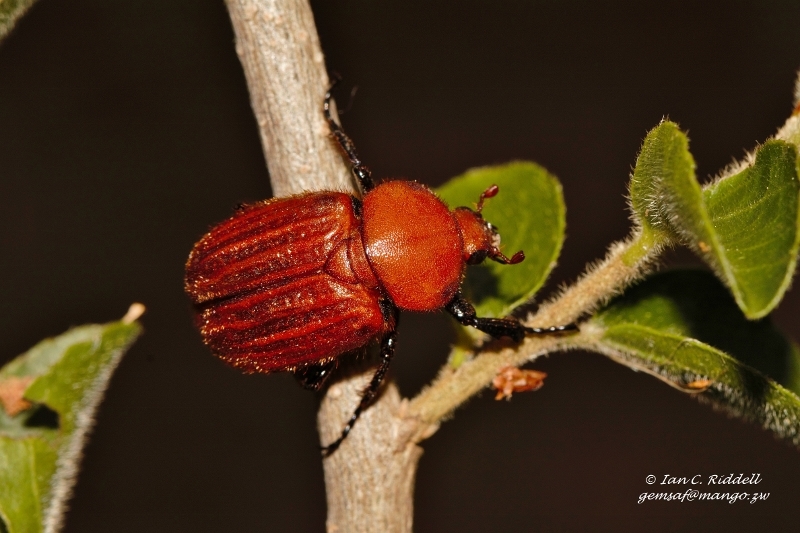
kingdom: Animalia
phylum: Arthropoda
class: Insecta
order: Coleoptera
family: Scarabaeidae
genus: Myodermum
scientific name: Myodermum rufum
